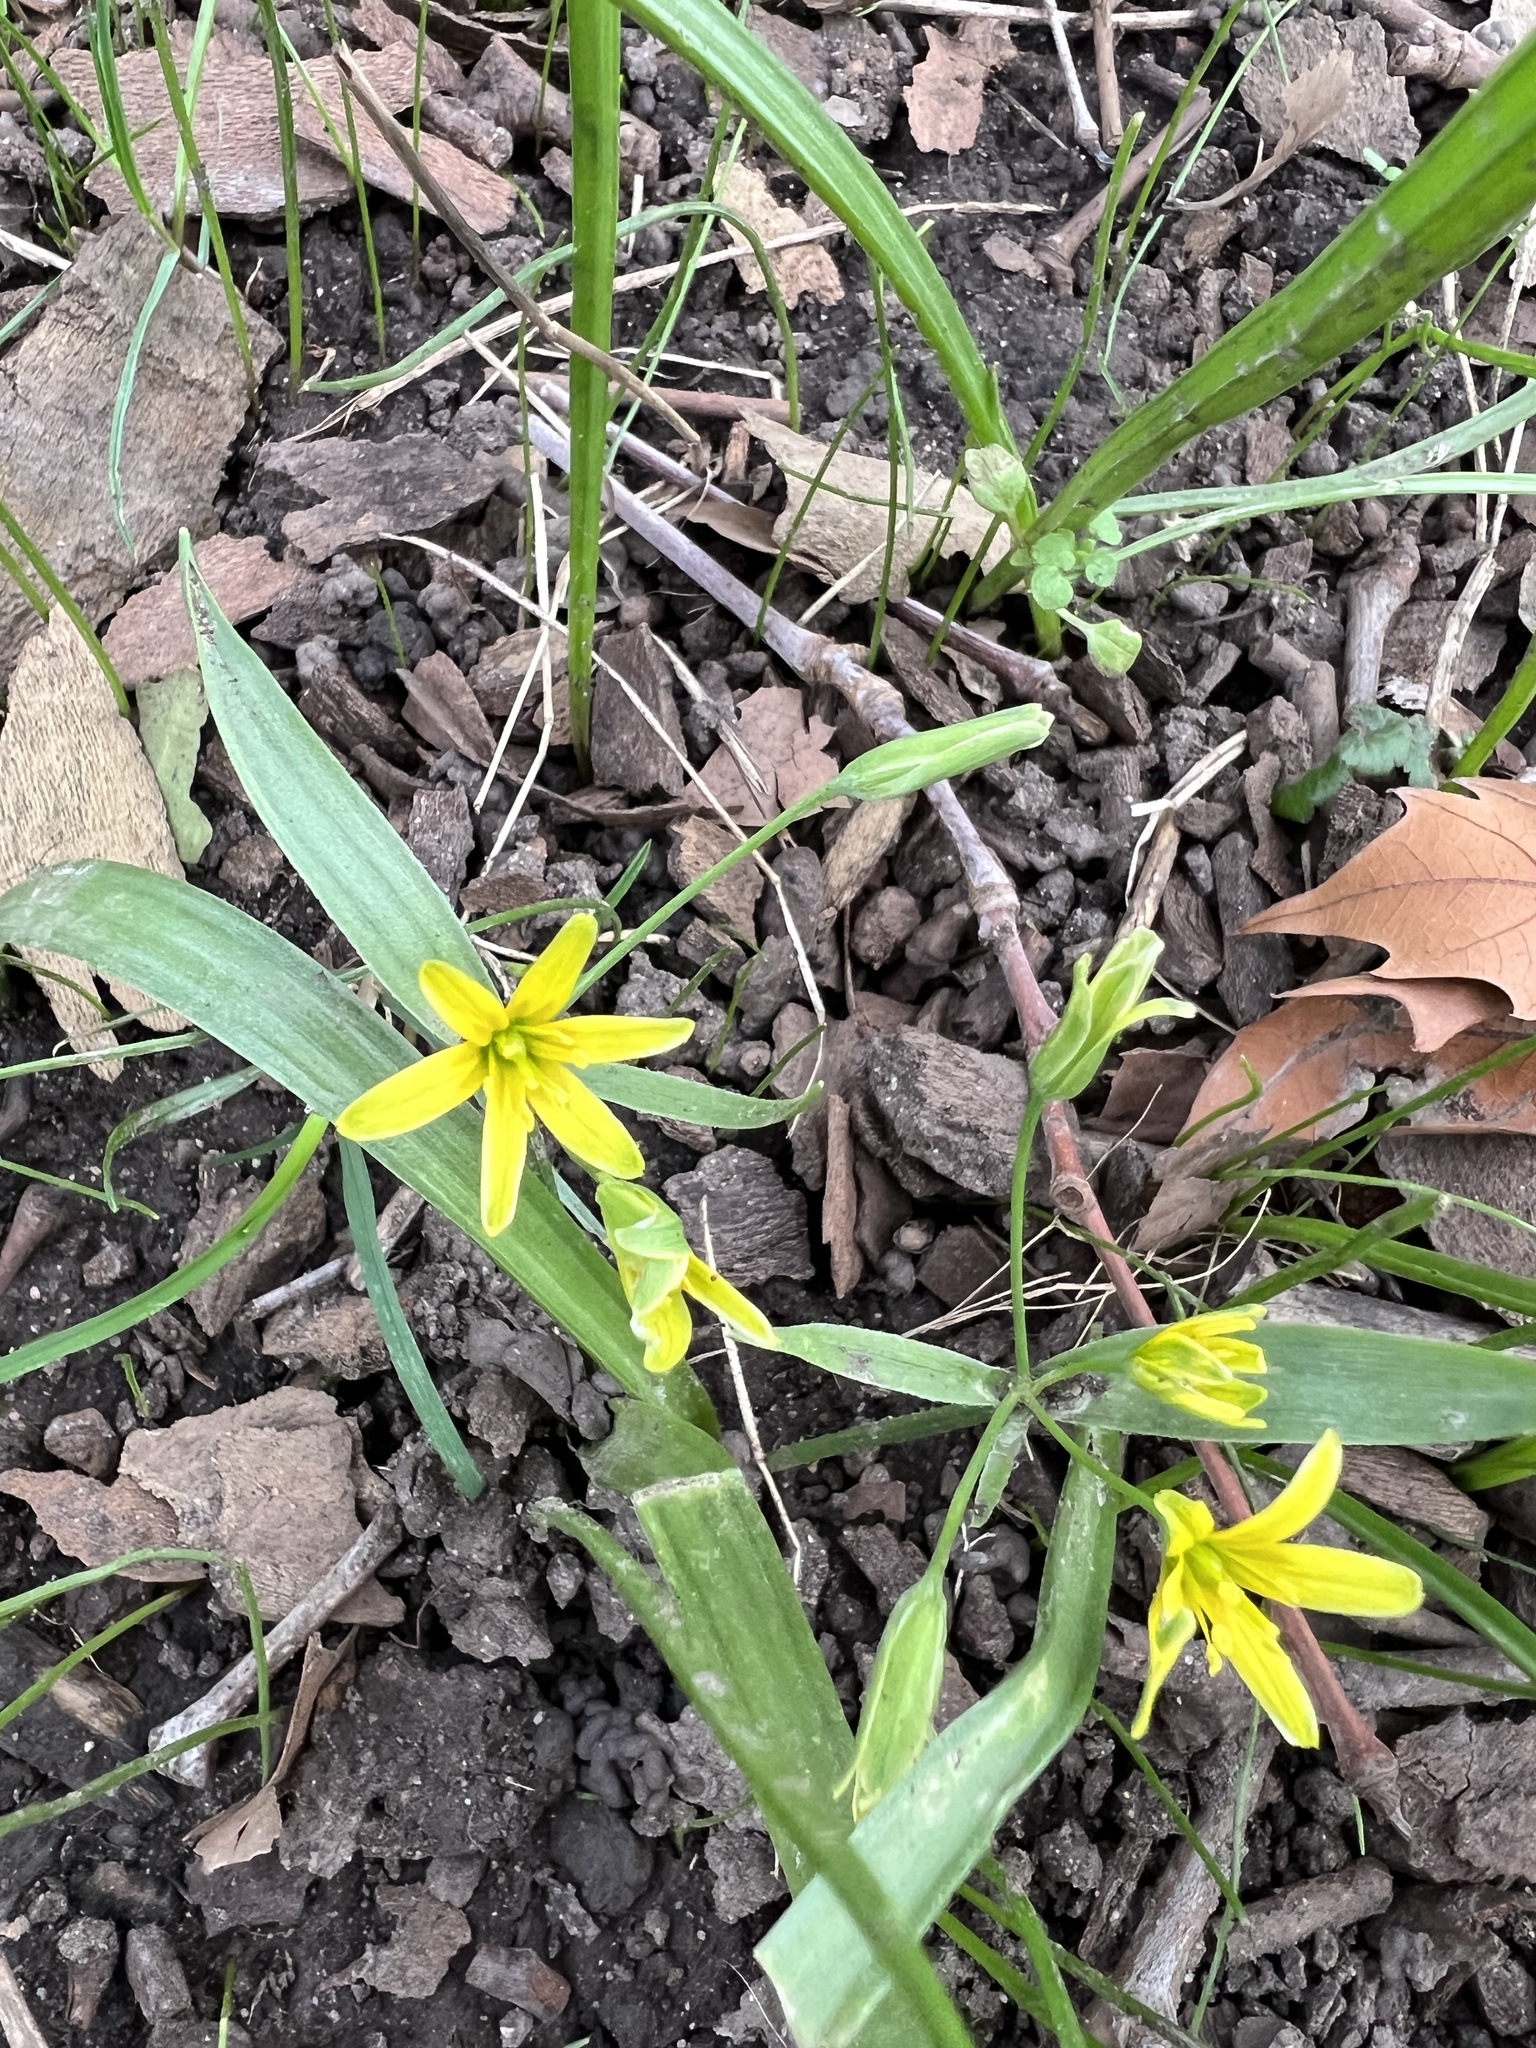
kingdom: Plantae
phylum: Tracheophyta
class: Liliopsida
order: Liliales
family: Liliaceae
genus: Gagea
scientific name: Gagea lutea
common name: Yellow star-of-bethlehem
